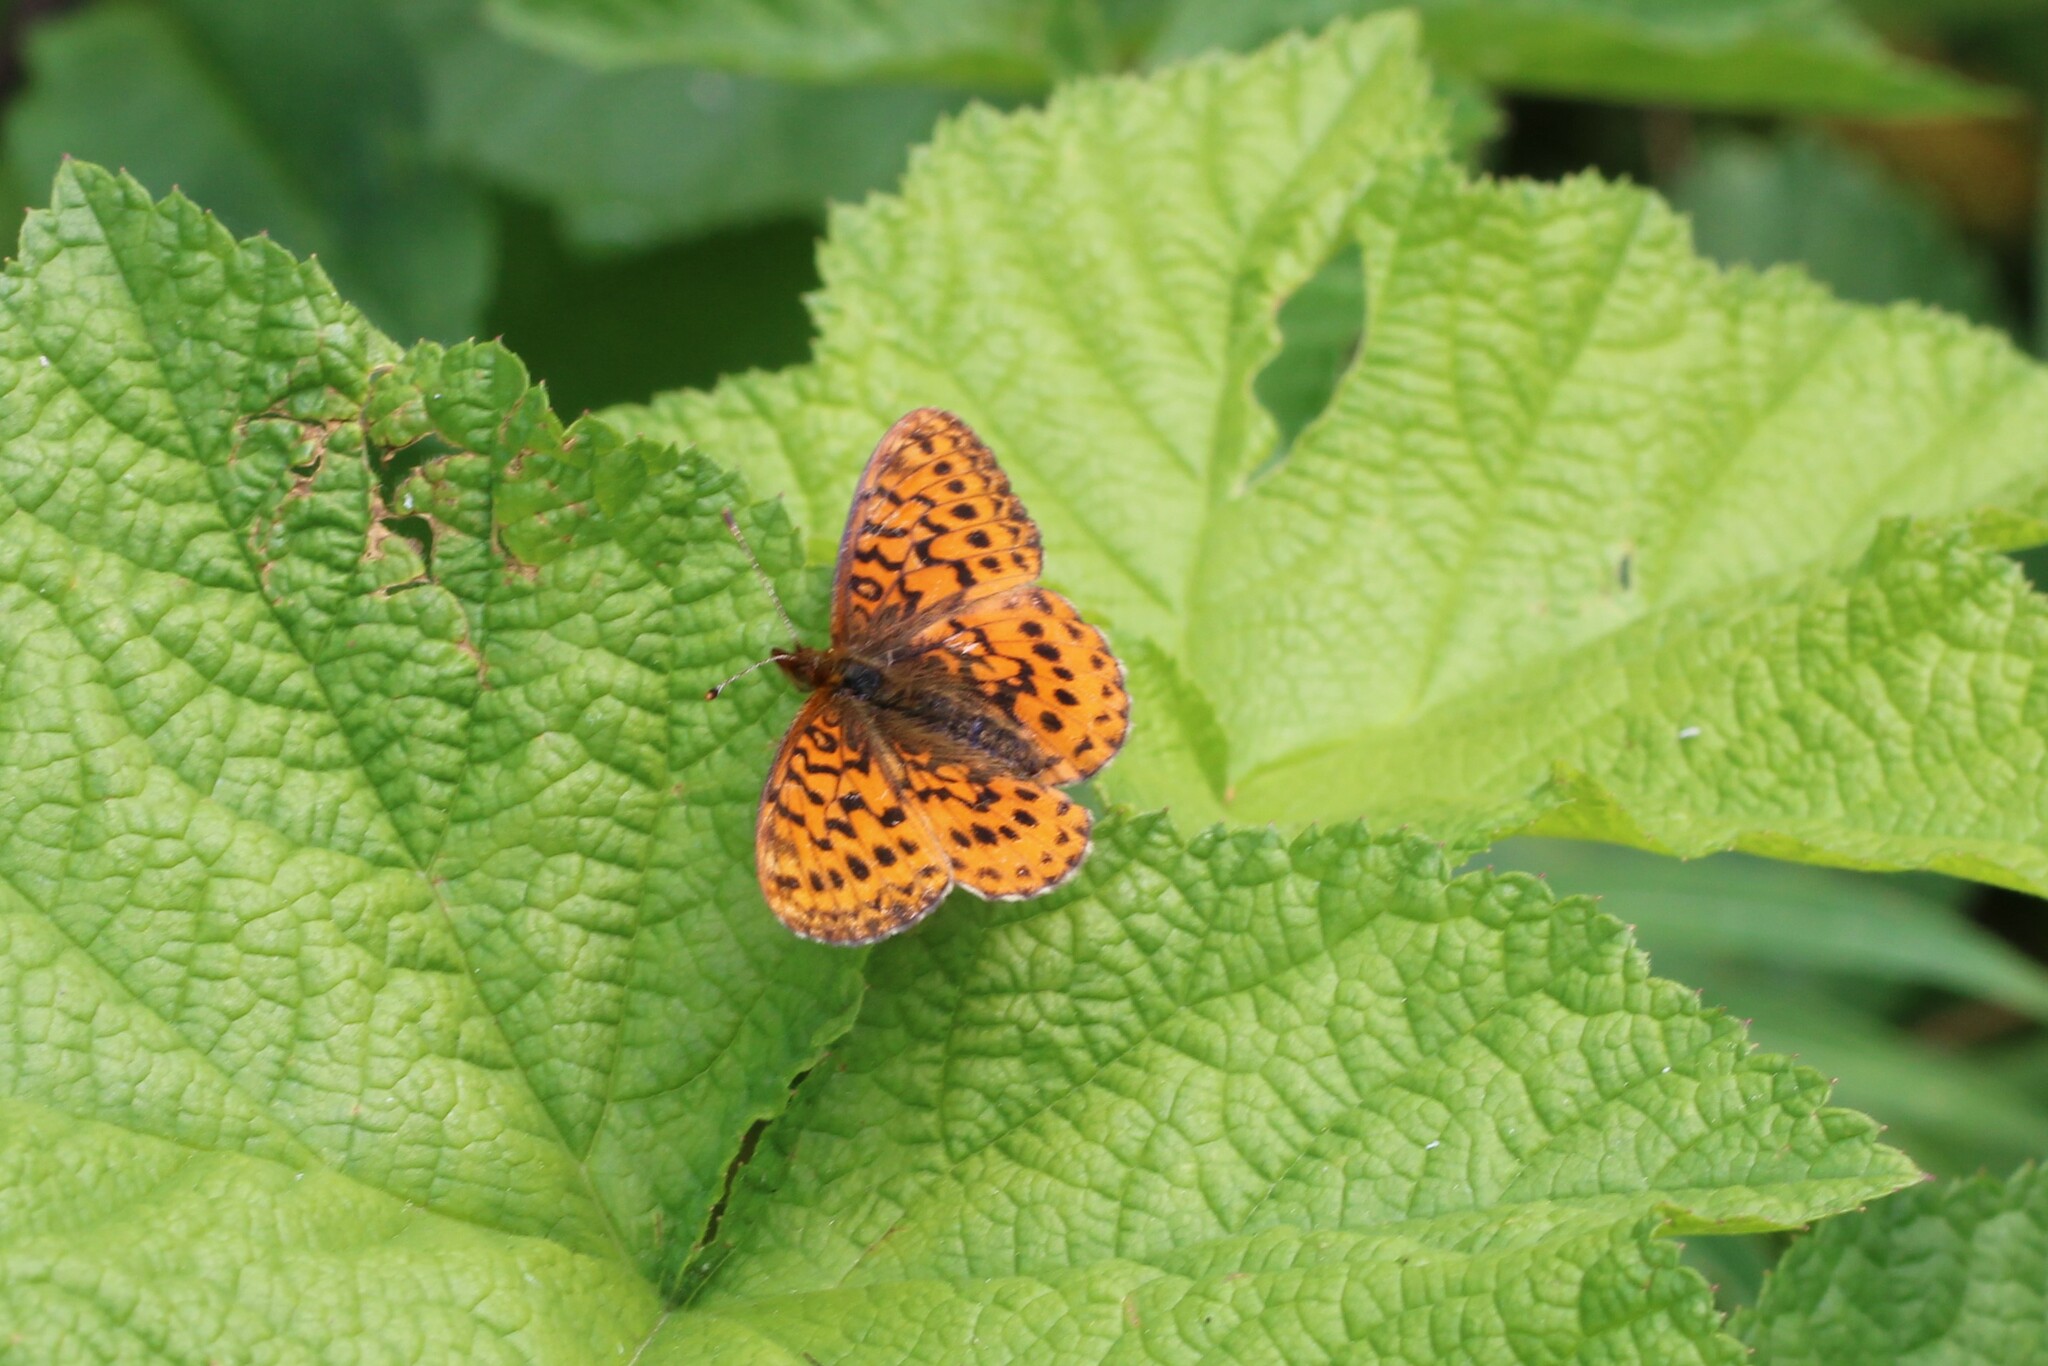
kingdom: Animalia
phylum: Arthropoda
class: Insecta
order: Lepidoptera
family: Nymphalidae
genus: Boloria
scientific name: Boloria epithore
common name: Pacific fritillary
